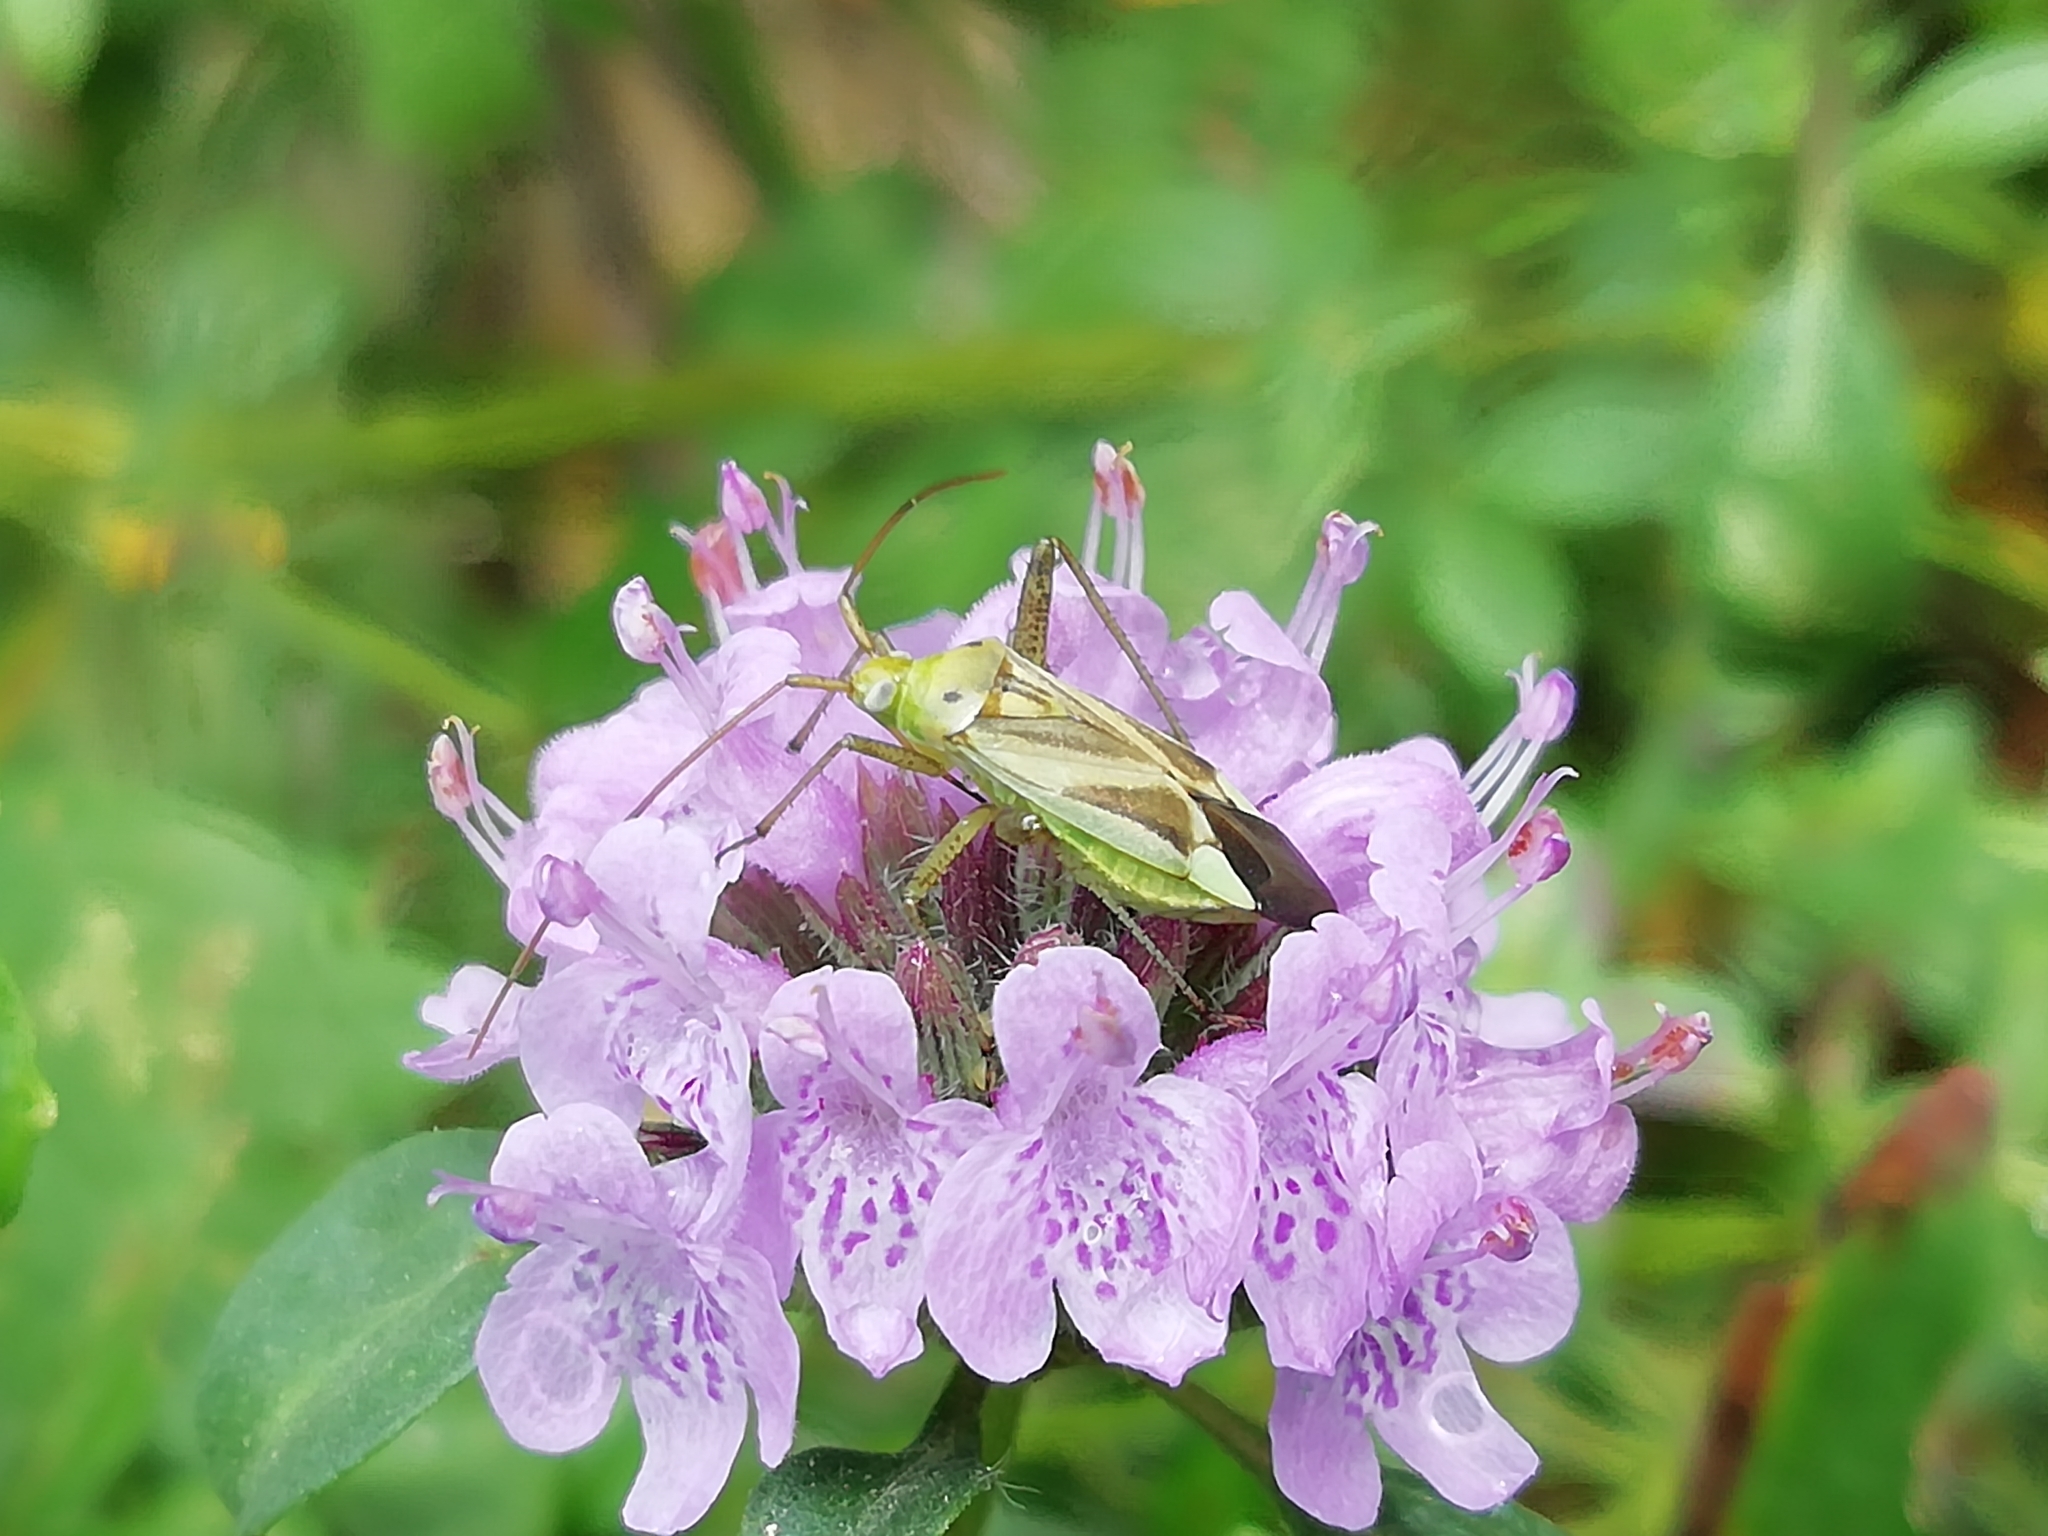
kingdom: Animalia
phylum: Arthropoda
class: Insecta
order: Hemiptera
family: Miridae
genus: Adelphocoris
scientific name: Adelphocoris lineolatus
